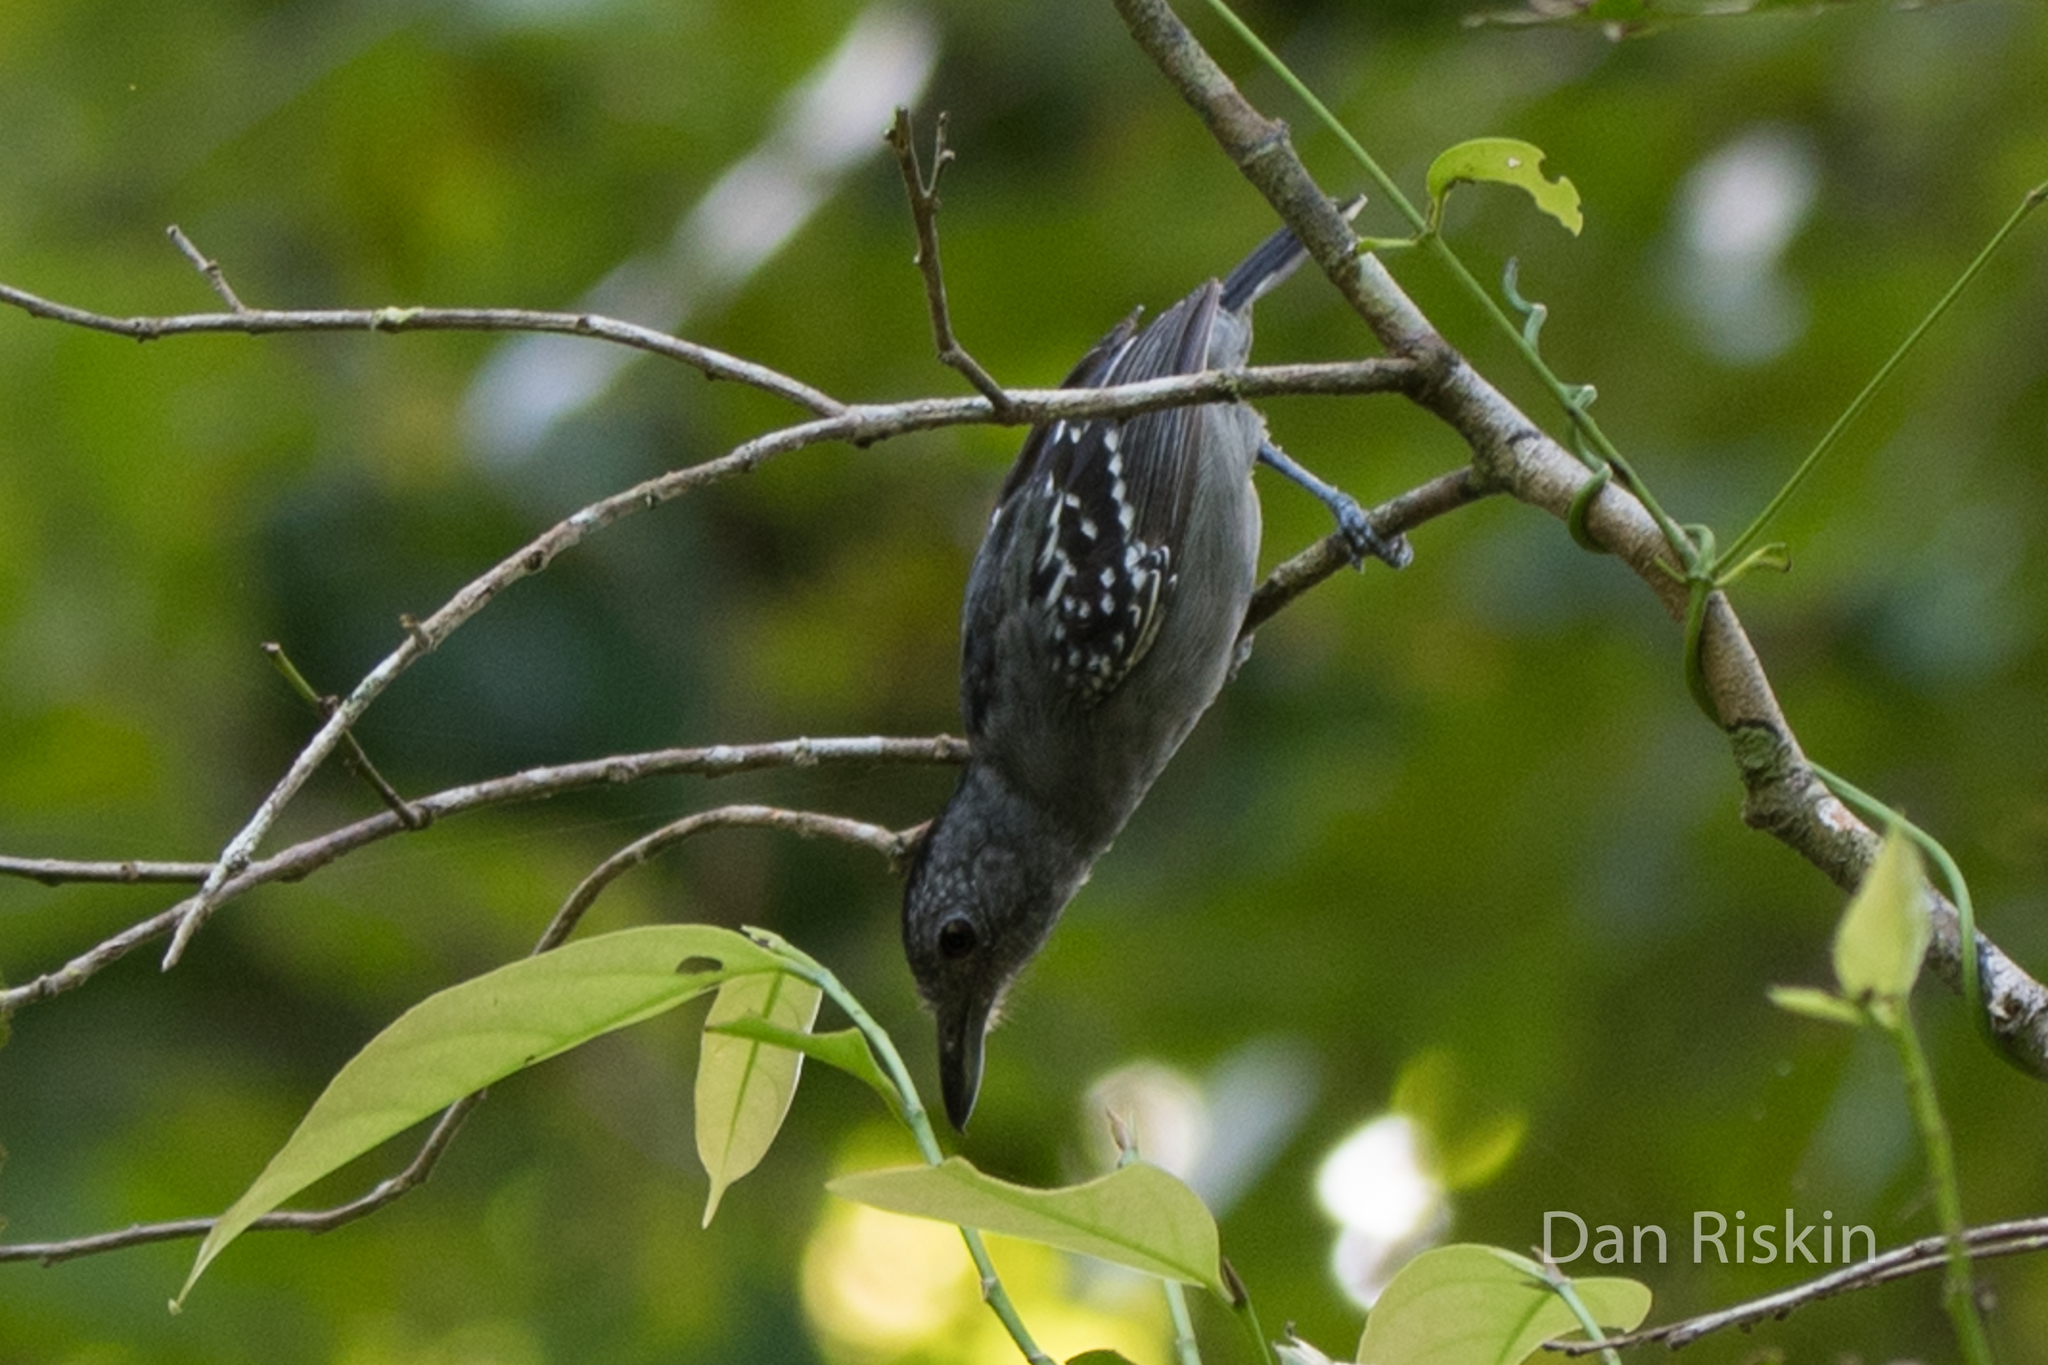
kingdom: Animalia
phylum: Chordata
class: Aves
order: Passeriformes
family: Thamnophilidae
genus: Thamnophilus
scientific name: Thamnophilus atrinucha
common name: Black-crowned antshrike
